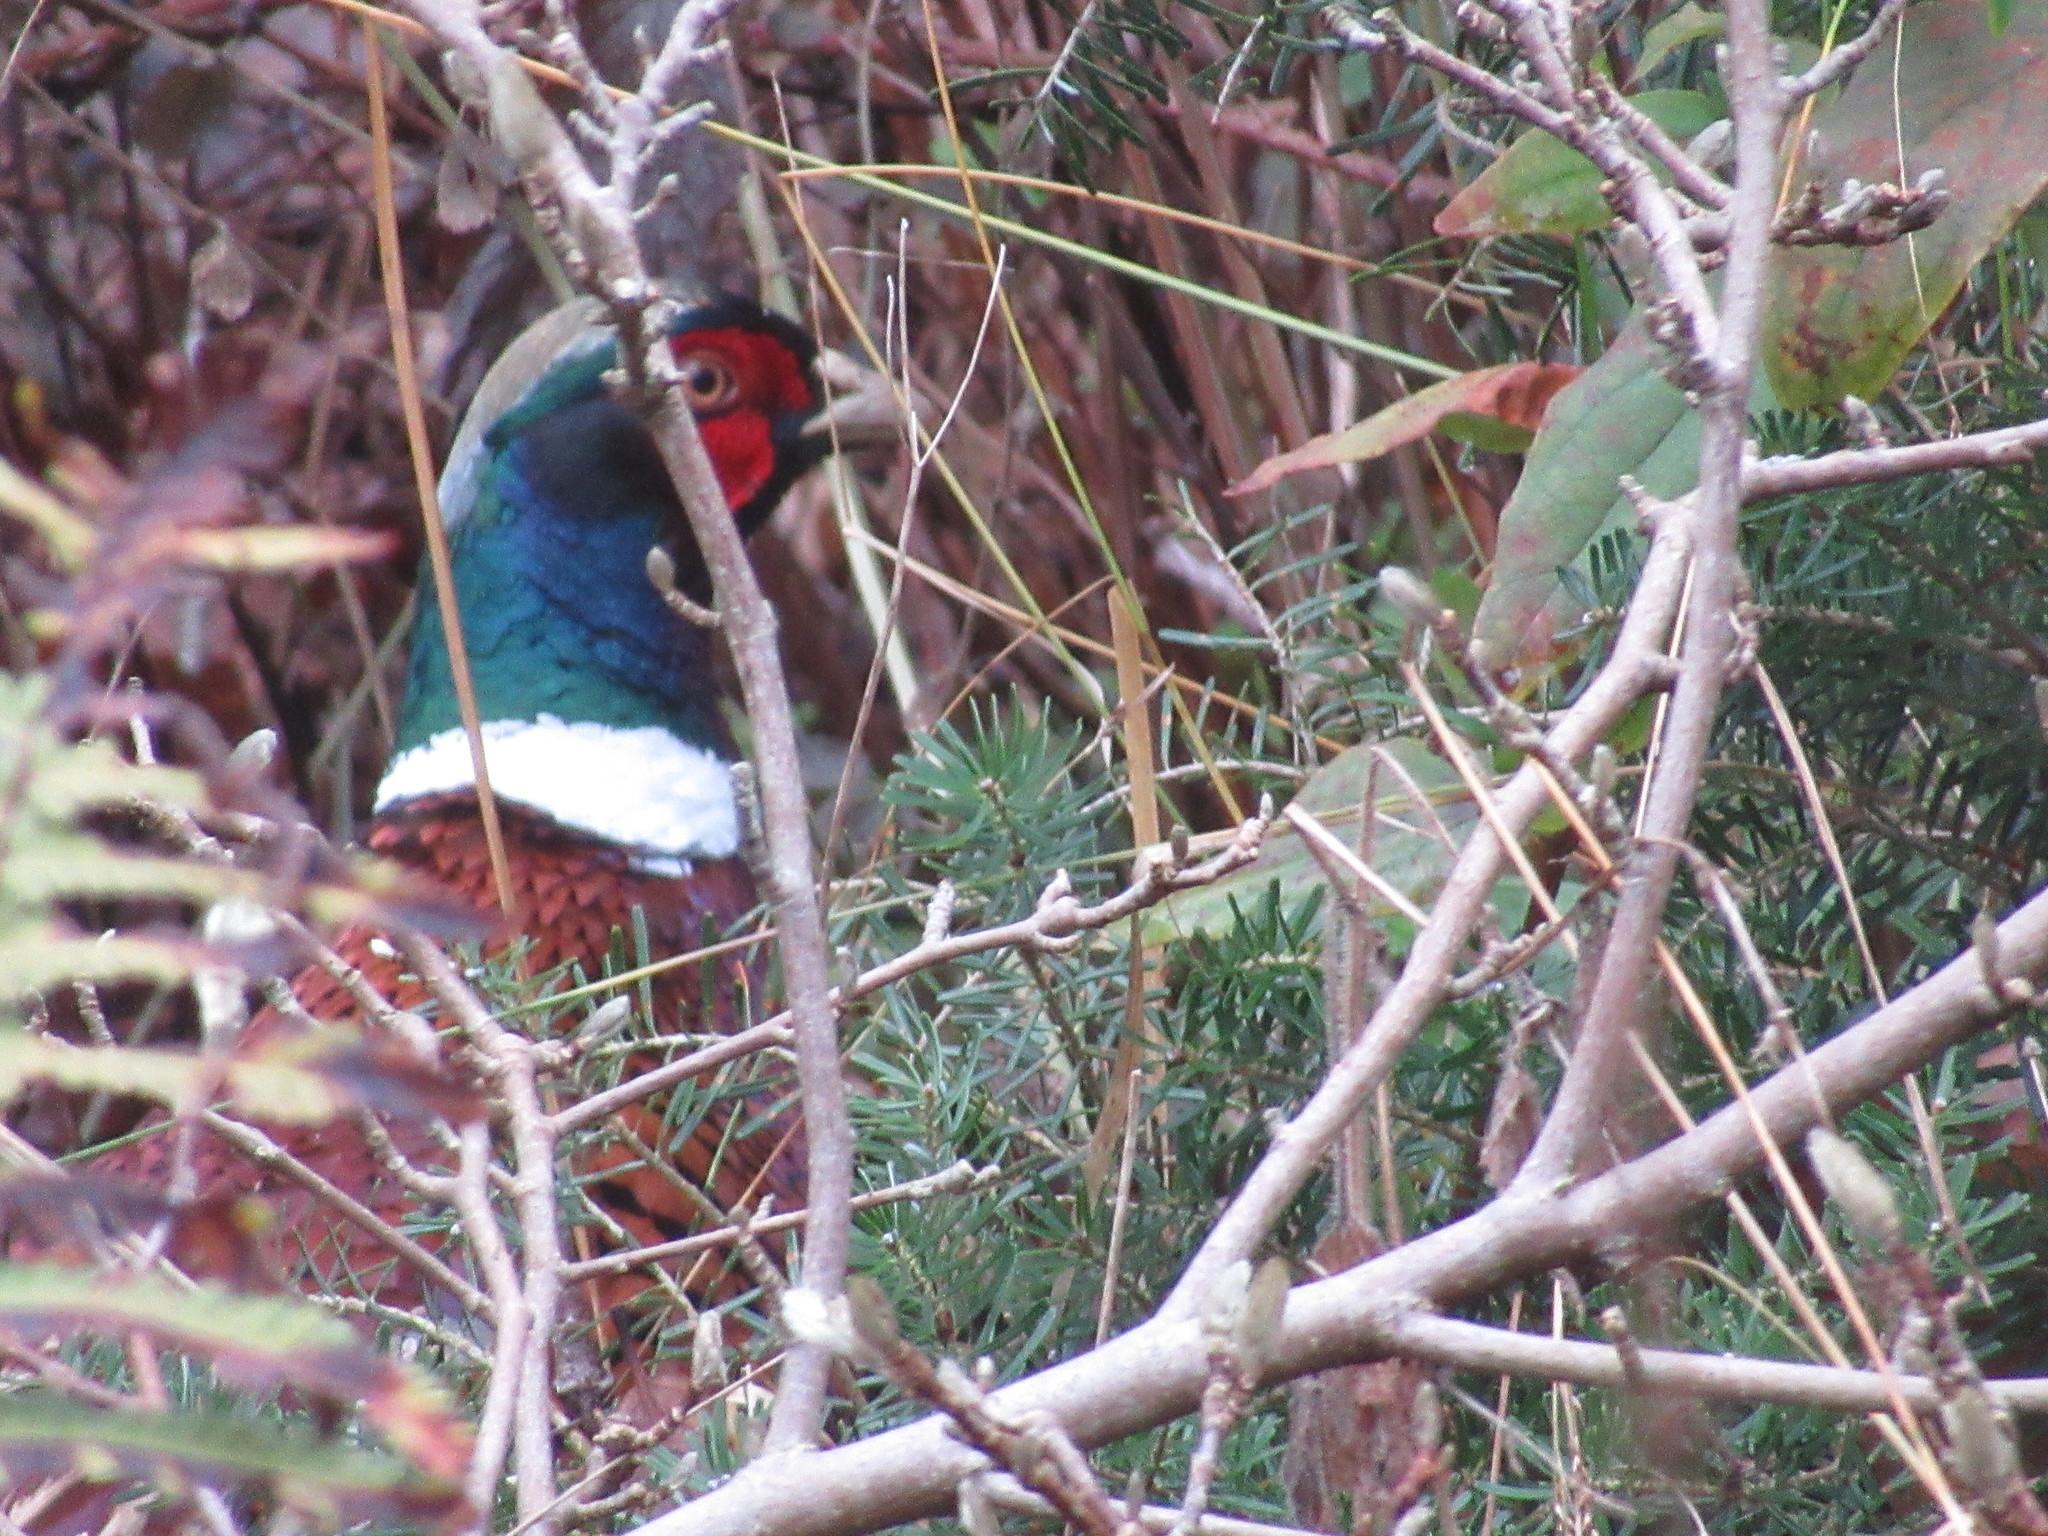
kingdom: Animalia
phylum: Chordata
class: Aves
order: Galliformes
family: Phasianidae
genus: Phasianus
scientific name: Phasianus colchicus
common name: Common pheasant
